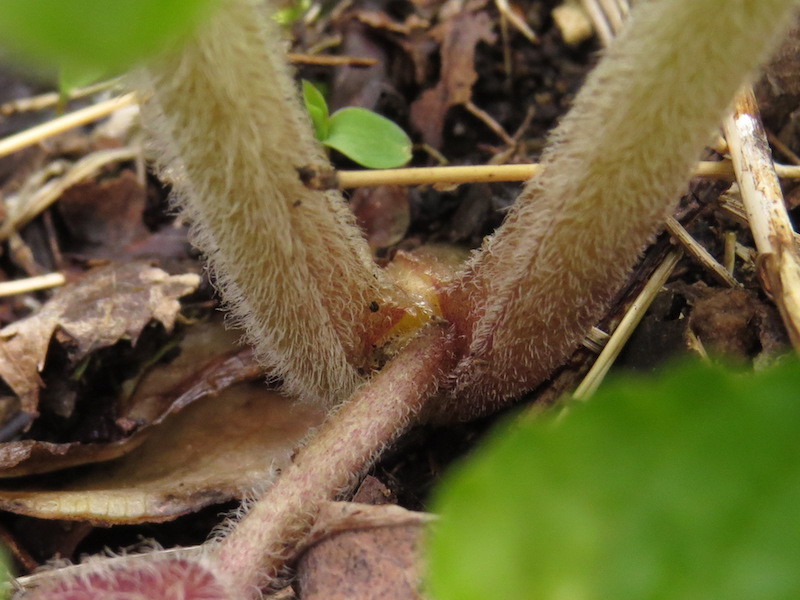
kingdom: Plantae
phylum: Tracheophyta
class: Magnoliopsida
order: Piperales
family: Aristolochiaceae
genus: Asarum
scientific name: Asarum canadense
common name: Wild ginger
